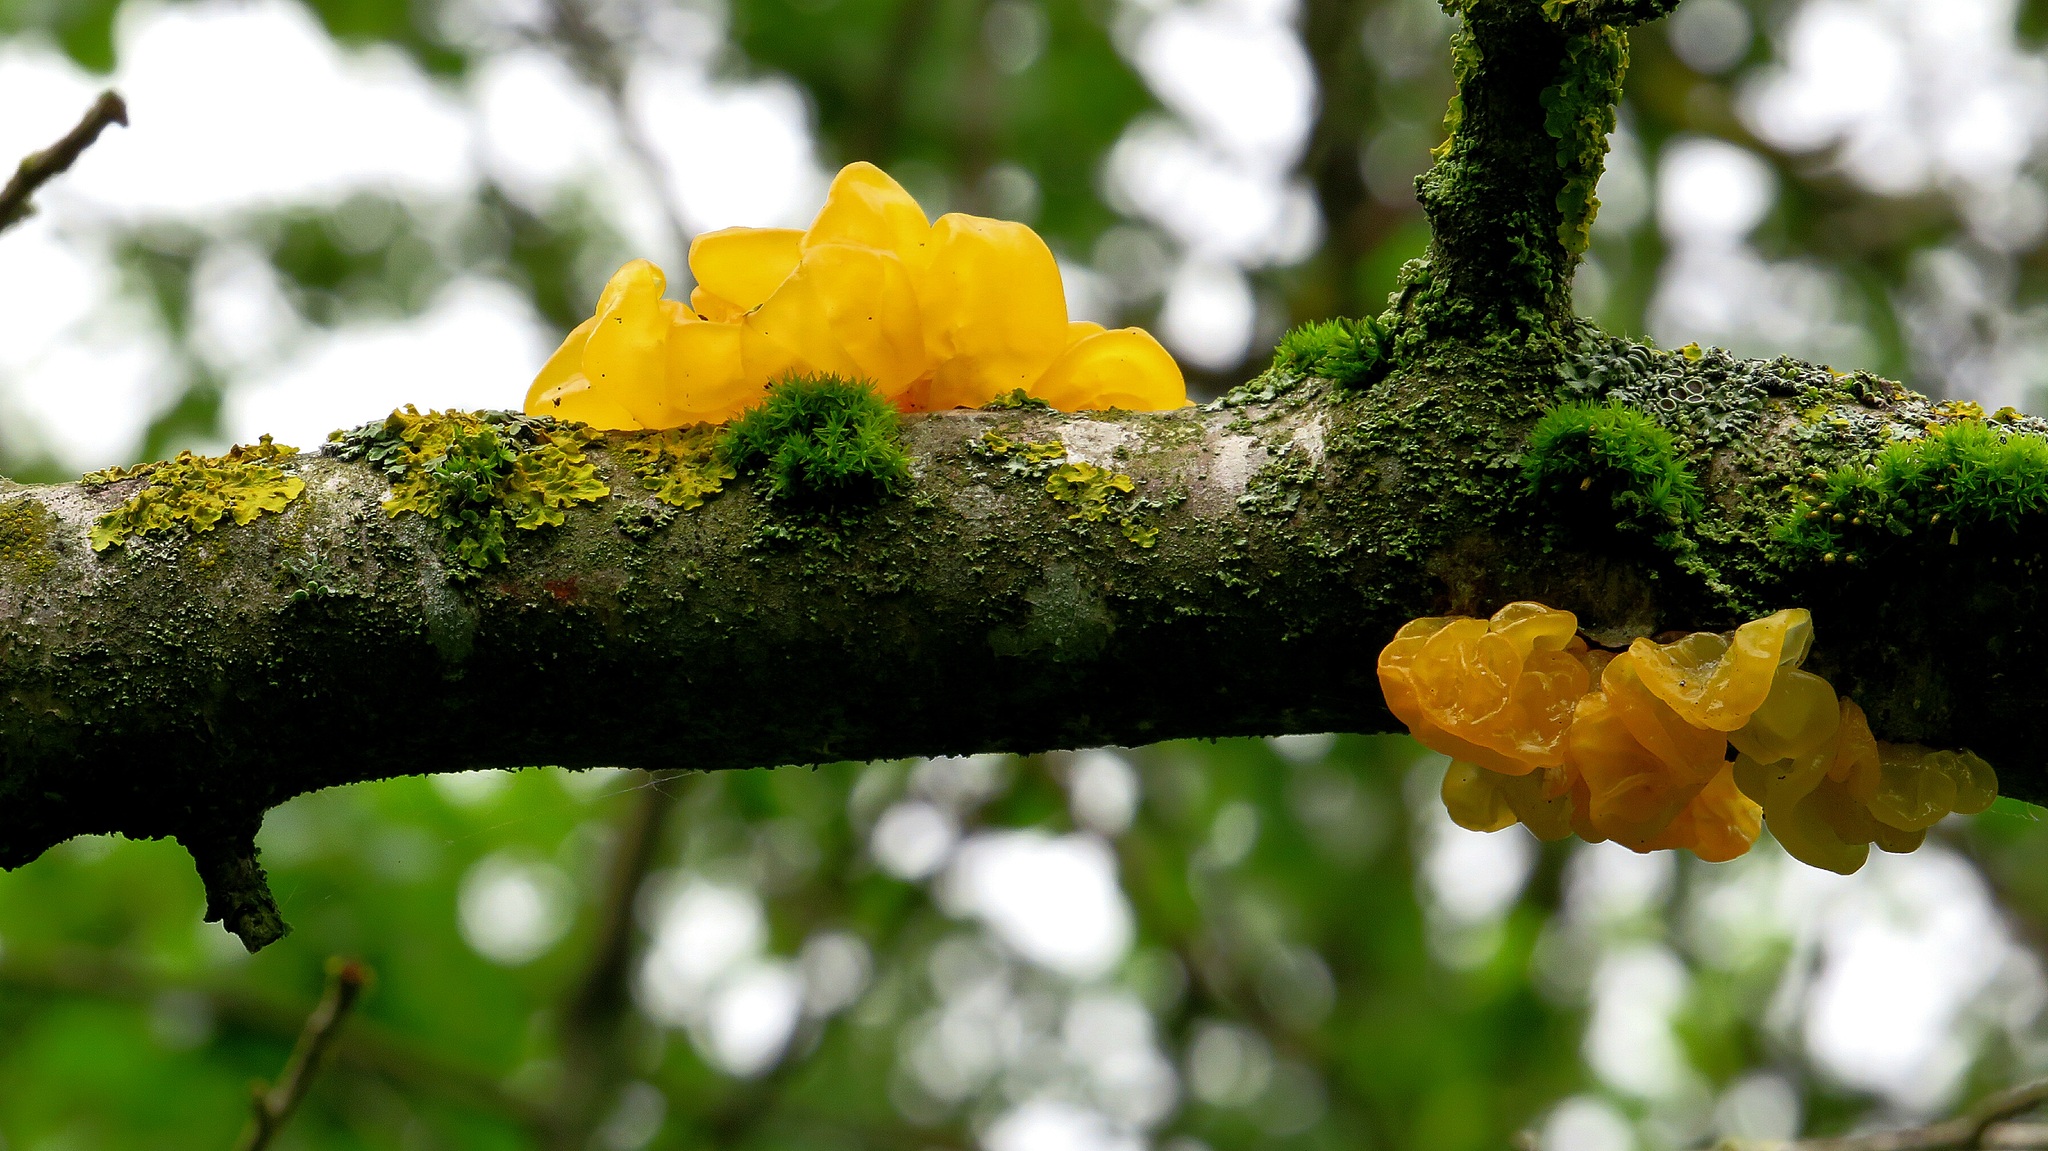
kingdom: Fungi
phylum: Basidiomycota
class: Tremellomycetes
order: Tremellales
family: Tremellaceae
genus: Tremella
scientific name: Tremella mesenterica
